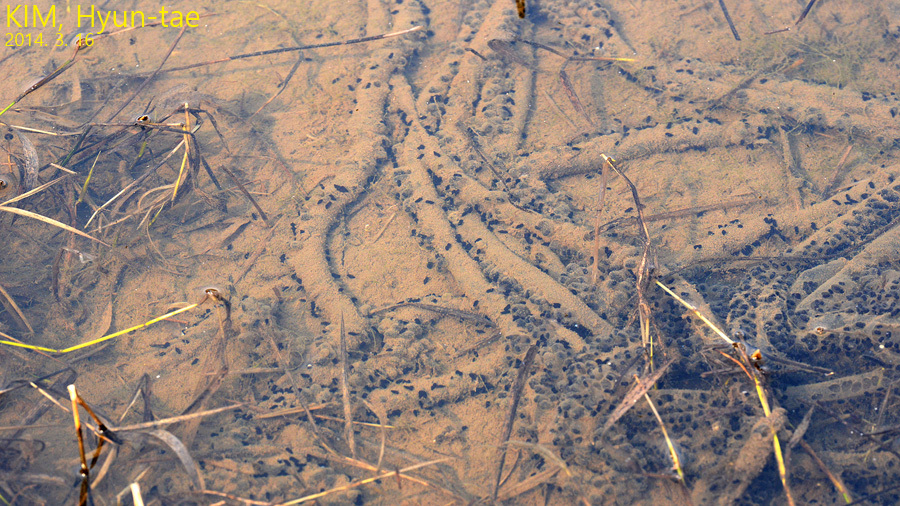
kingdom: Animalia
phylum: Chordata
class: Amphibia
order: Anura
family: Bufonidae
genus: Bufo
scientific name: Bufo gargarizans
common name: Asiatic toad
